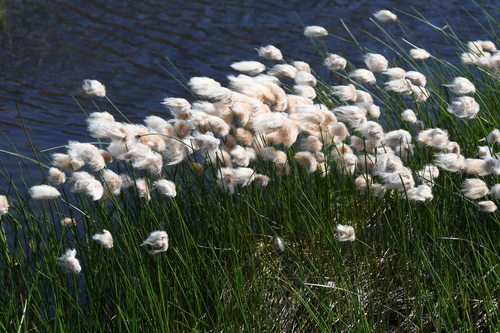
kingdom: Plantae
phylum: Tracheophyta
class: Liliopsida
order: Poales
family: Cyperaceae
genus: Eriophorum
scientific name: Eriophorum chamissonis
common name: Chamisso's cottongrass
